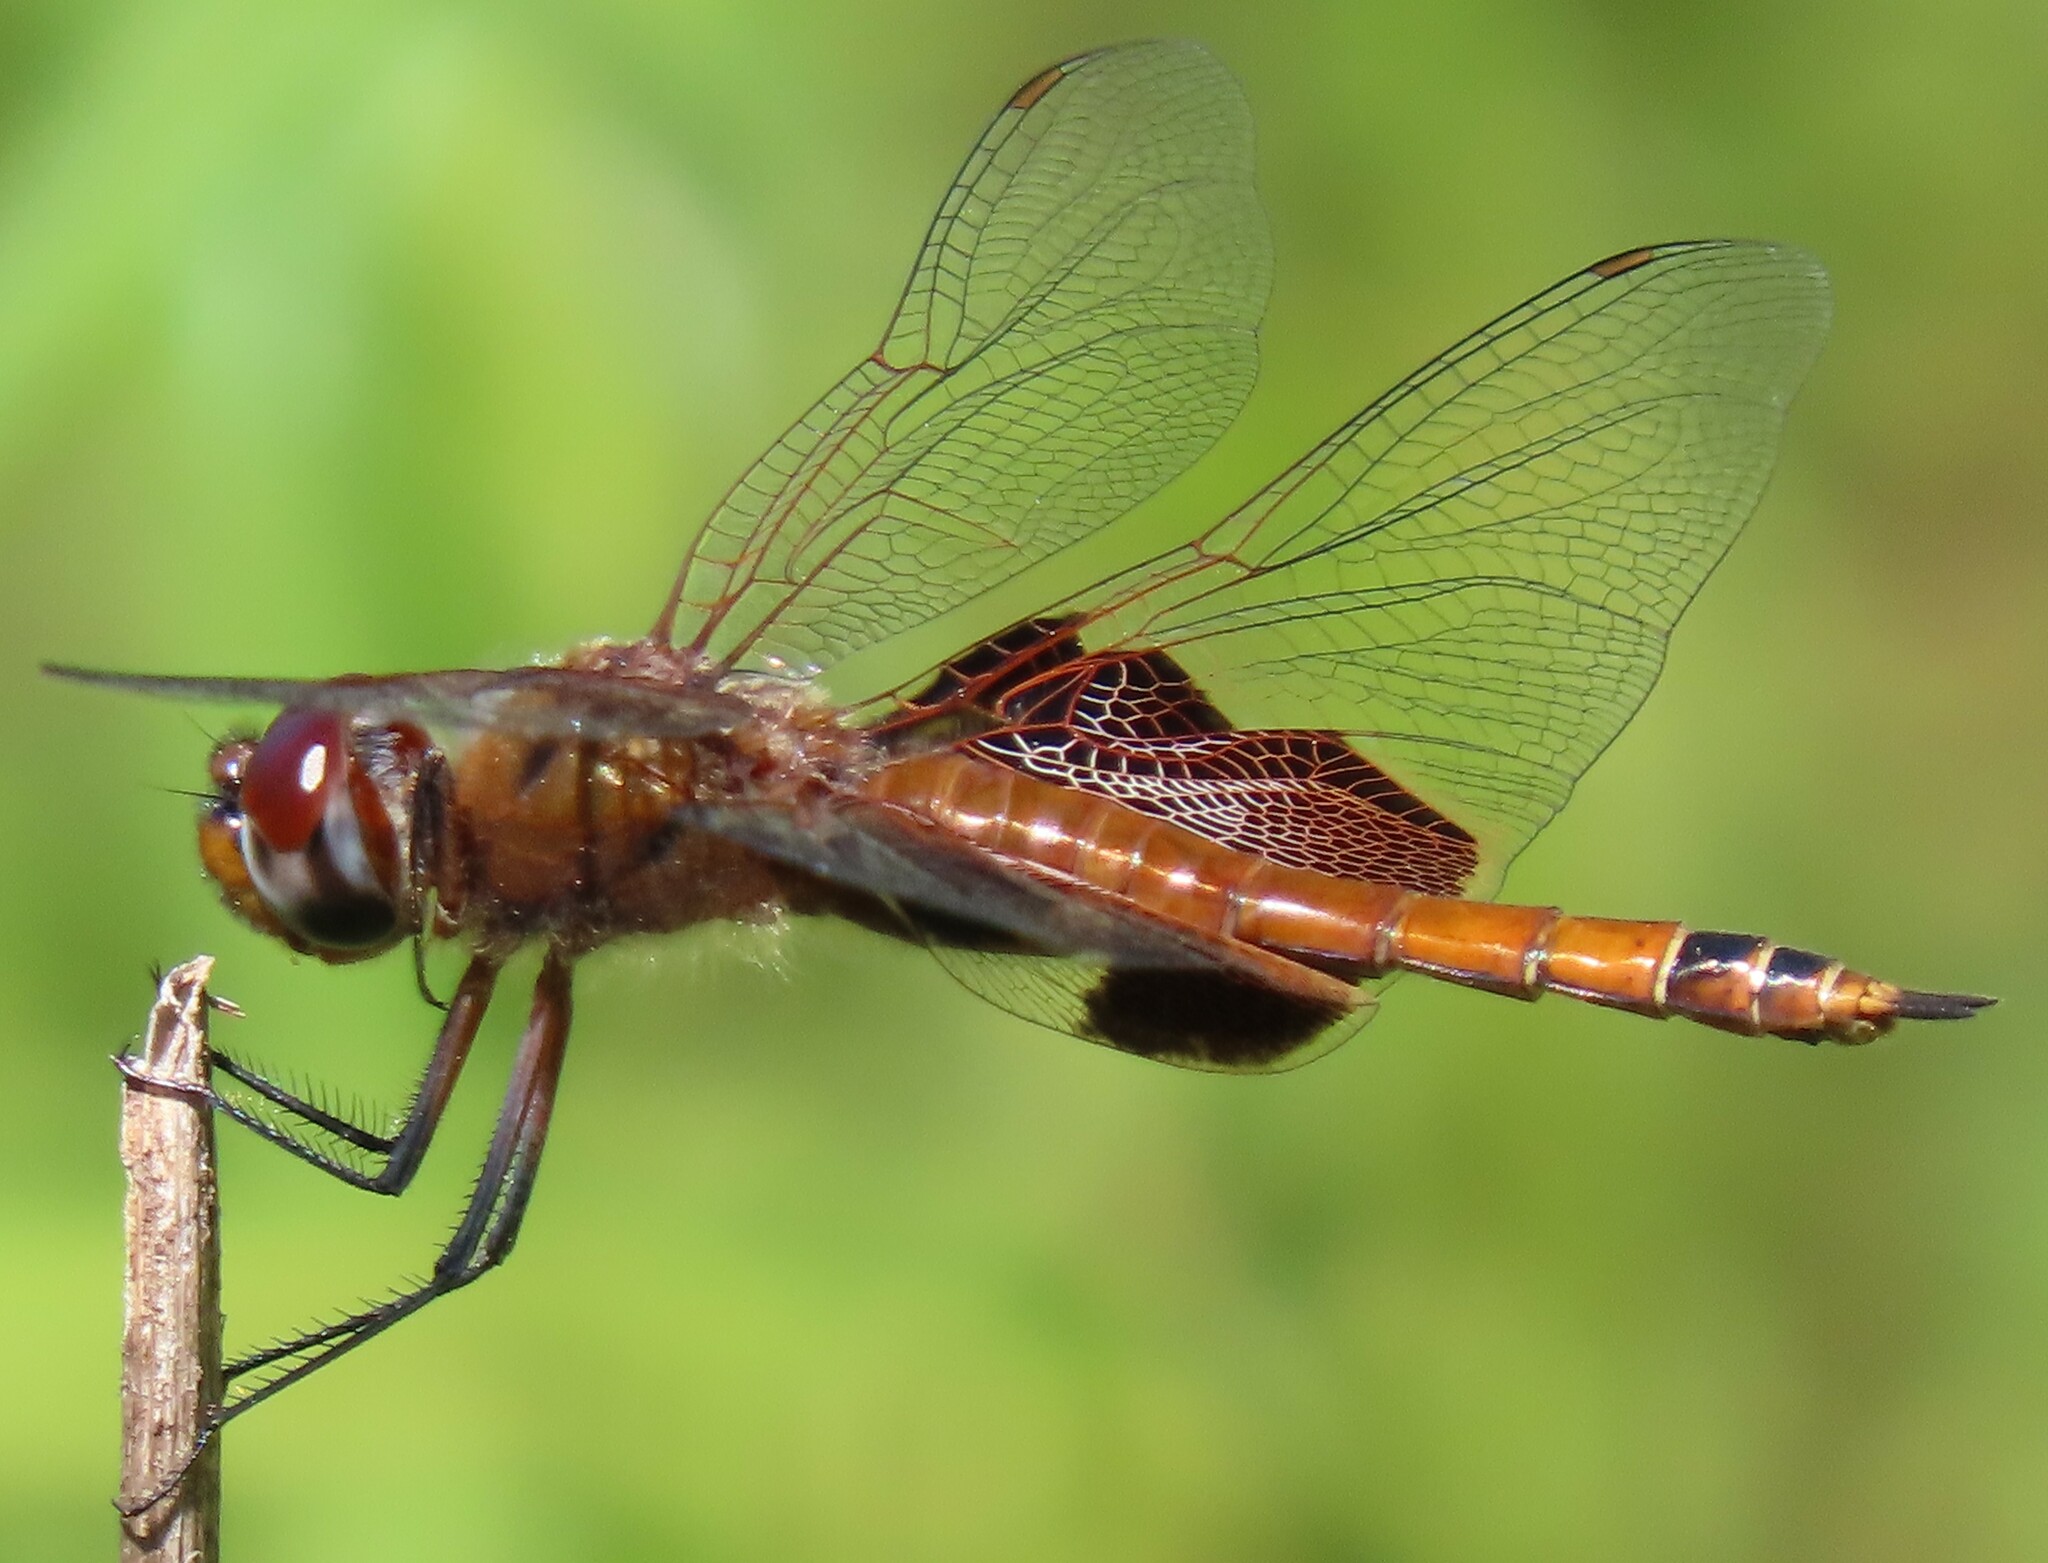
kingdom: Animalia
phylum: Arthropoda
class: Insecta
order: Odonata
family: Libellulidae
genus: Tramea
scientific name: Tramea carolina
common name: Carolina saddlebags
